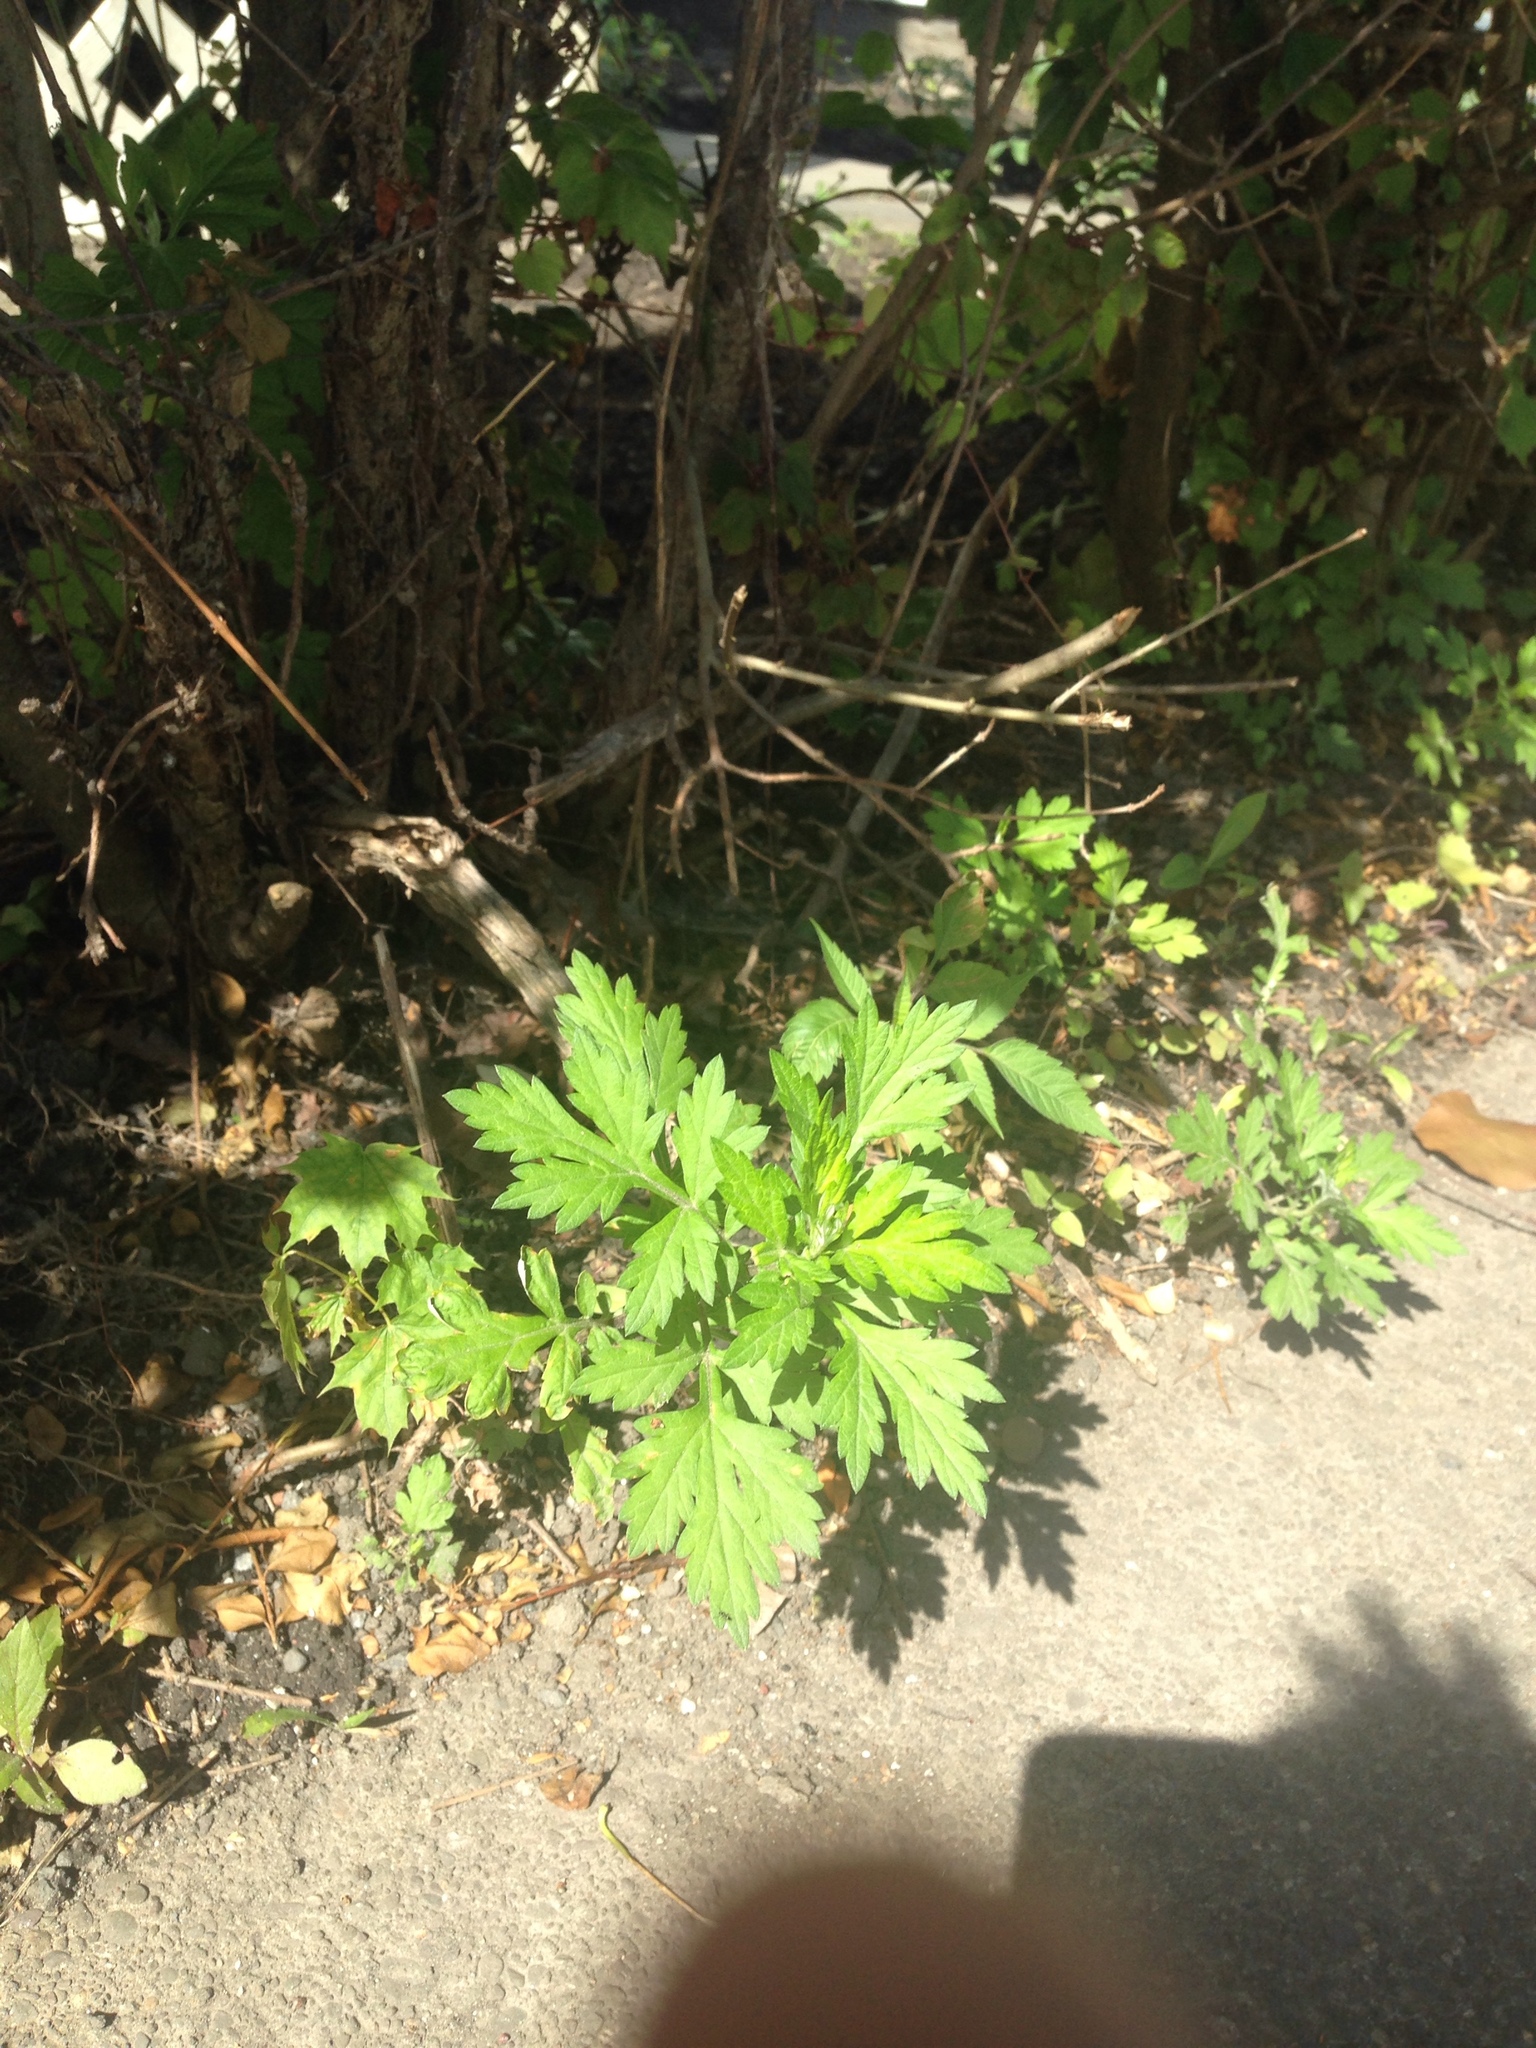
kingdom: Plantae
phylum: Tracheophyta
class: Magnoliopsida
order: Asterales
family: Asteraceae
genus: Artemisia
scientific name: Artemisia vulgaris
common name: Mugwort
